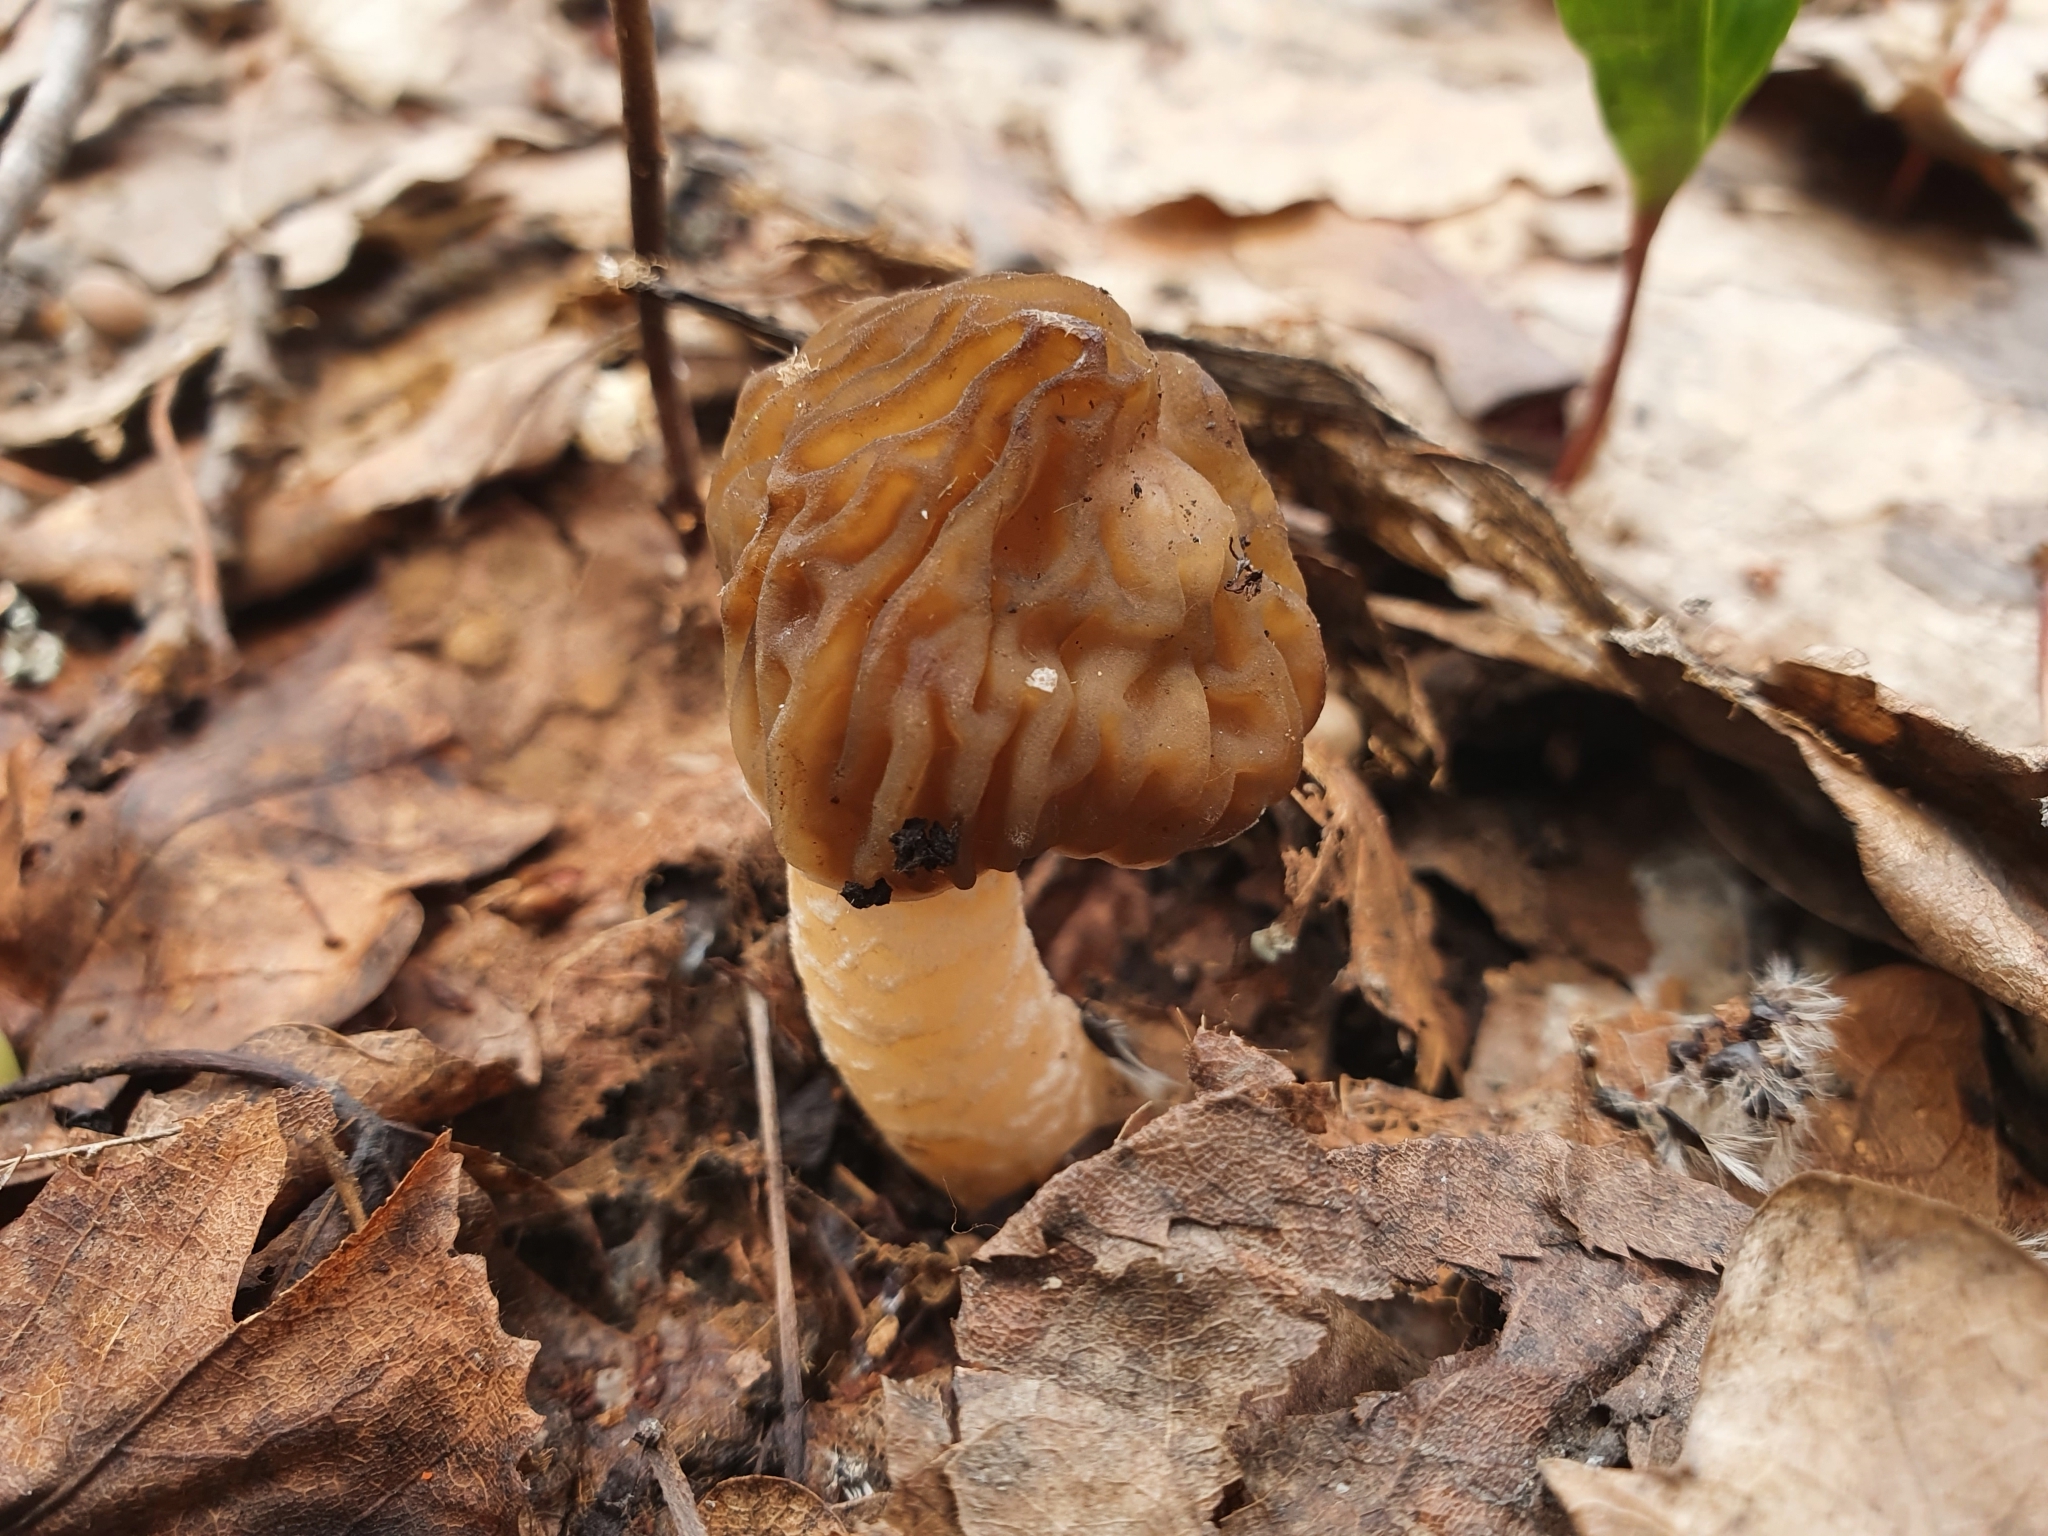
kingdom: Fungi
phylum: Ascomycota
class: Pezizomycetes
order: Pezizales
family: Morchellaceae
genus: Verpa
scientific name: Verpa bohemica
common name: Wrinkled thimble morel
